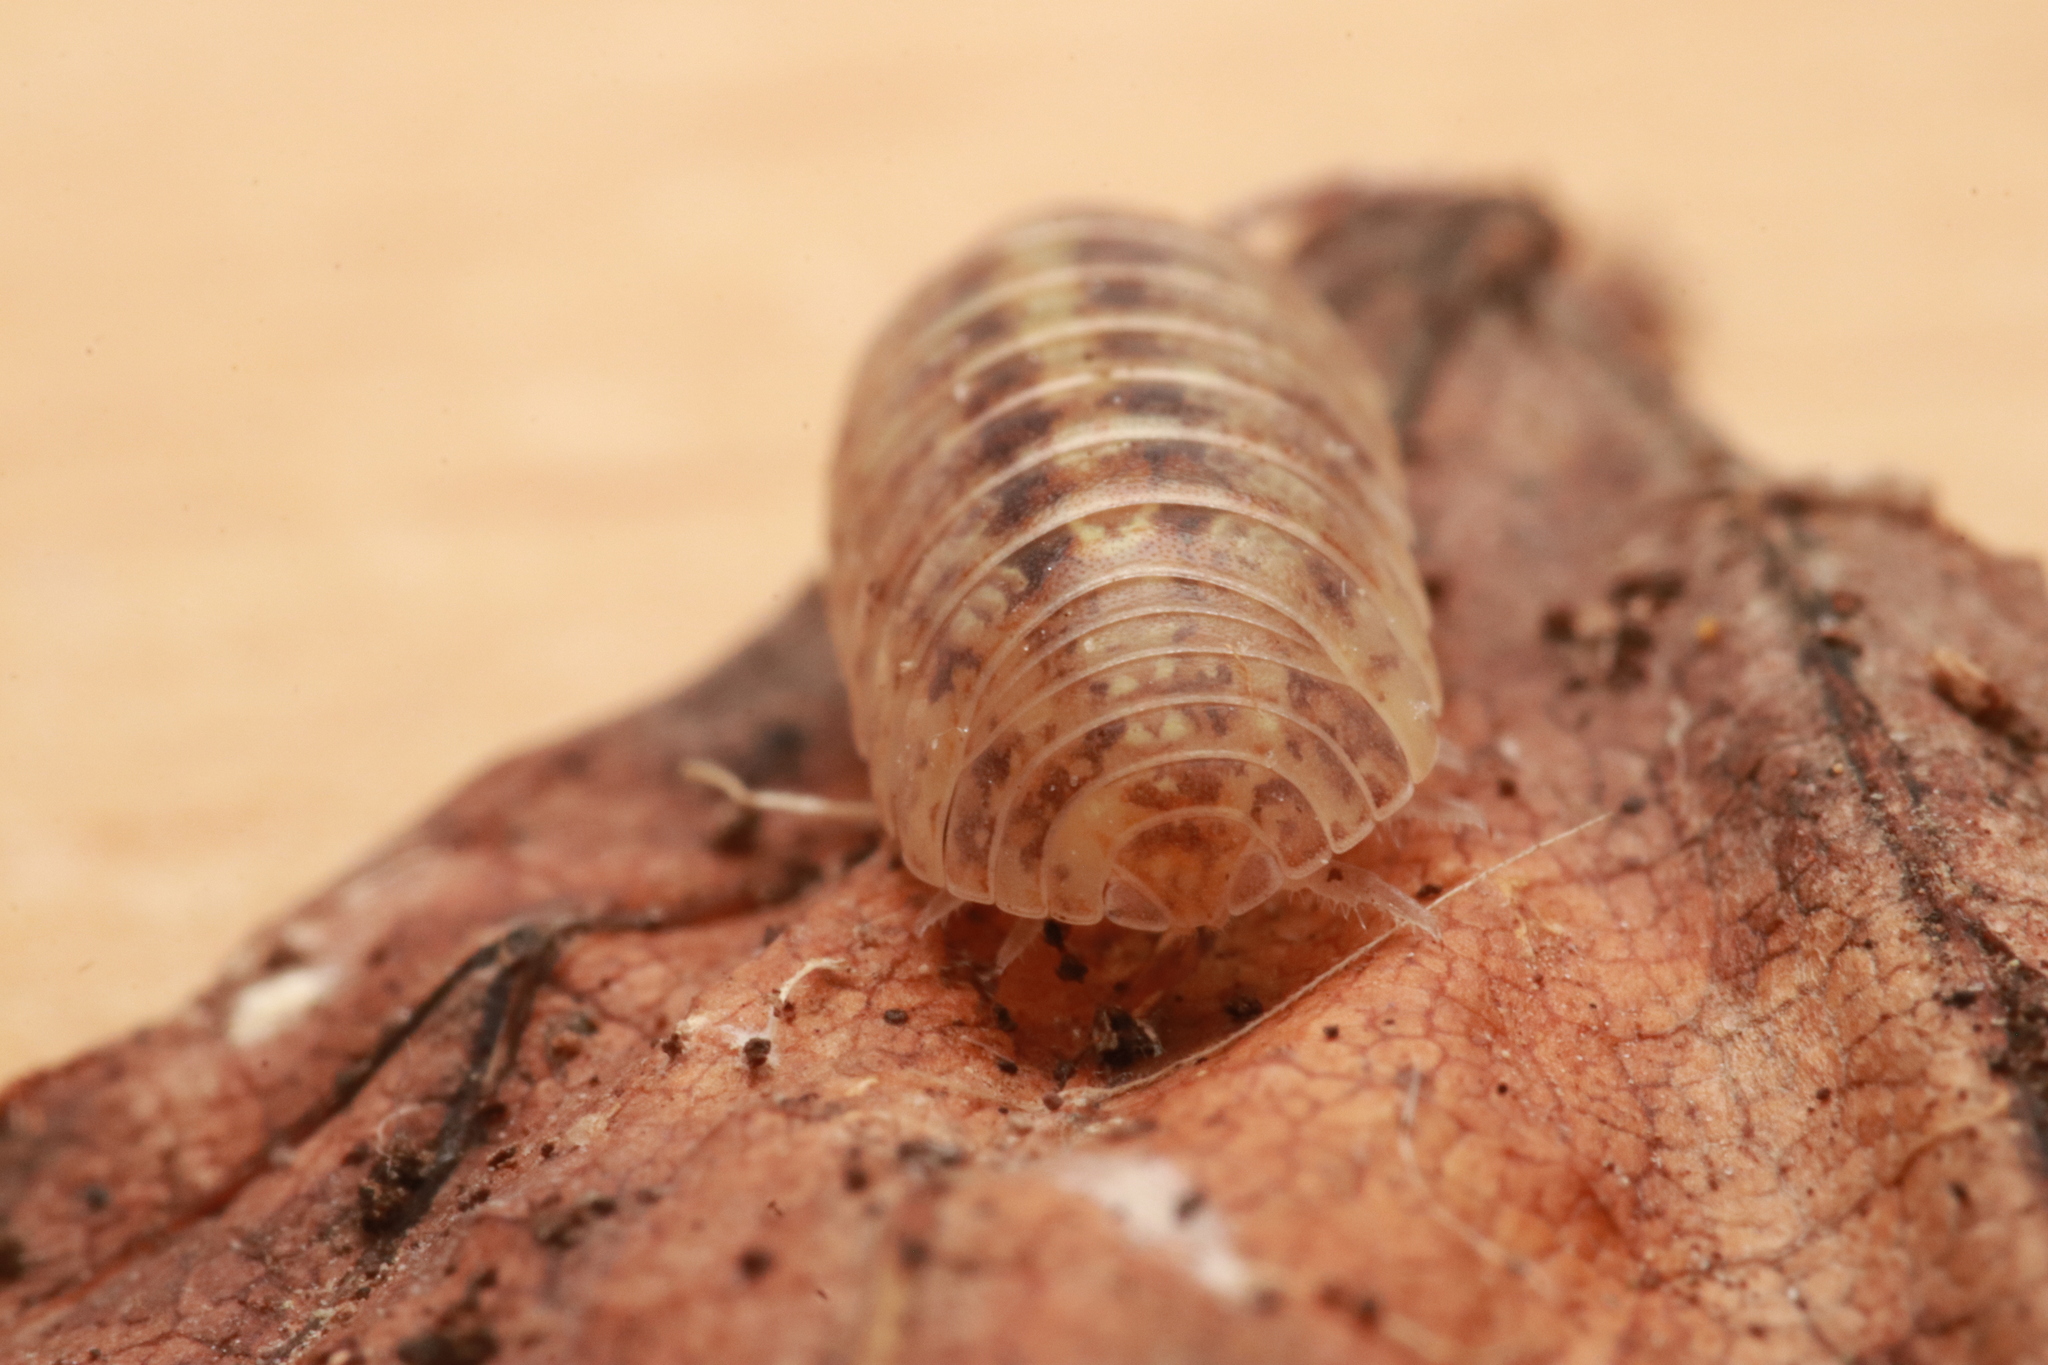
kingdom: Animalia
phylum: Arthropoda
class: Malacostraca
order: Isopoda
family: Armadillidiidae
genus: Armadillidium
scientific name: Armadillidium vulgare
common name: Common pill woodlouse
